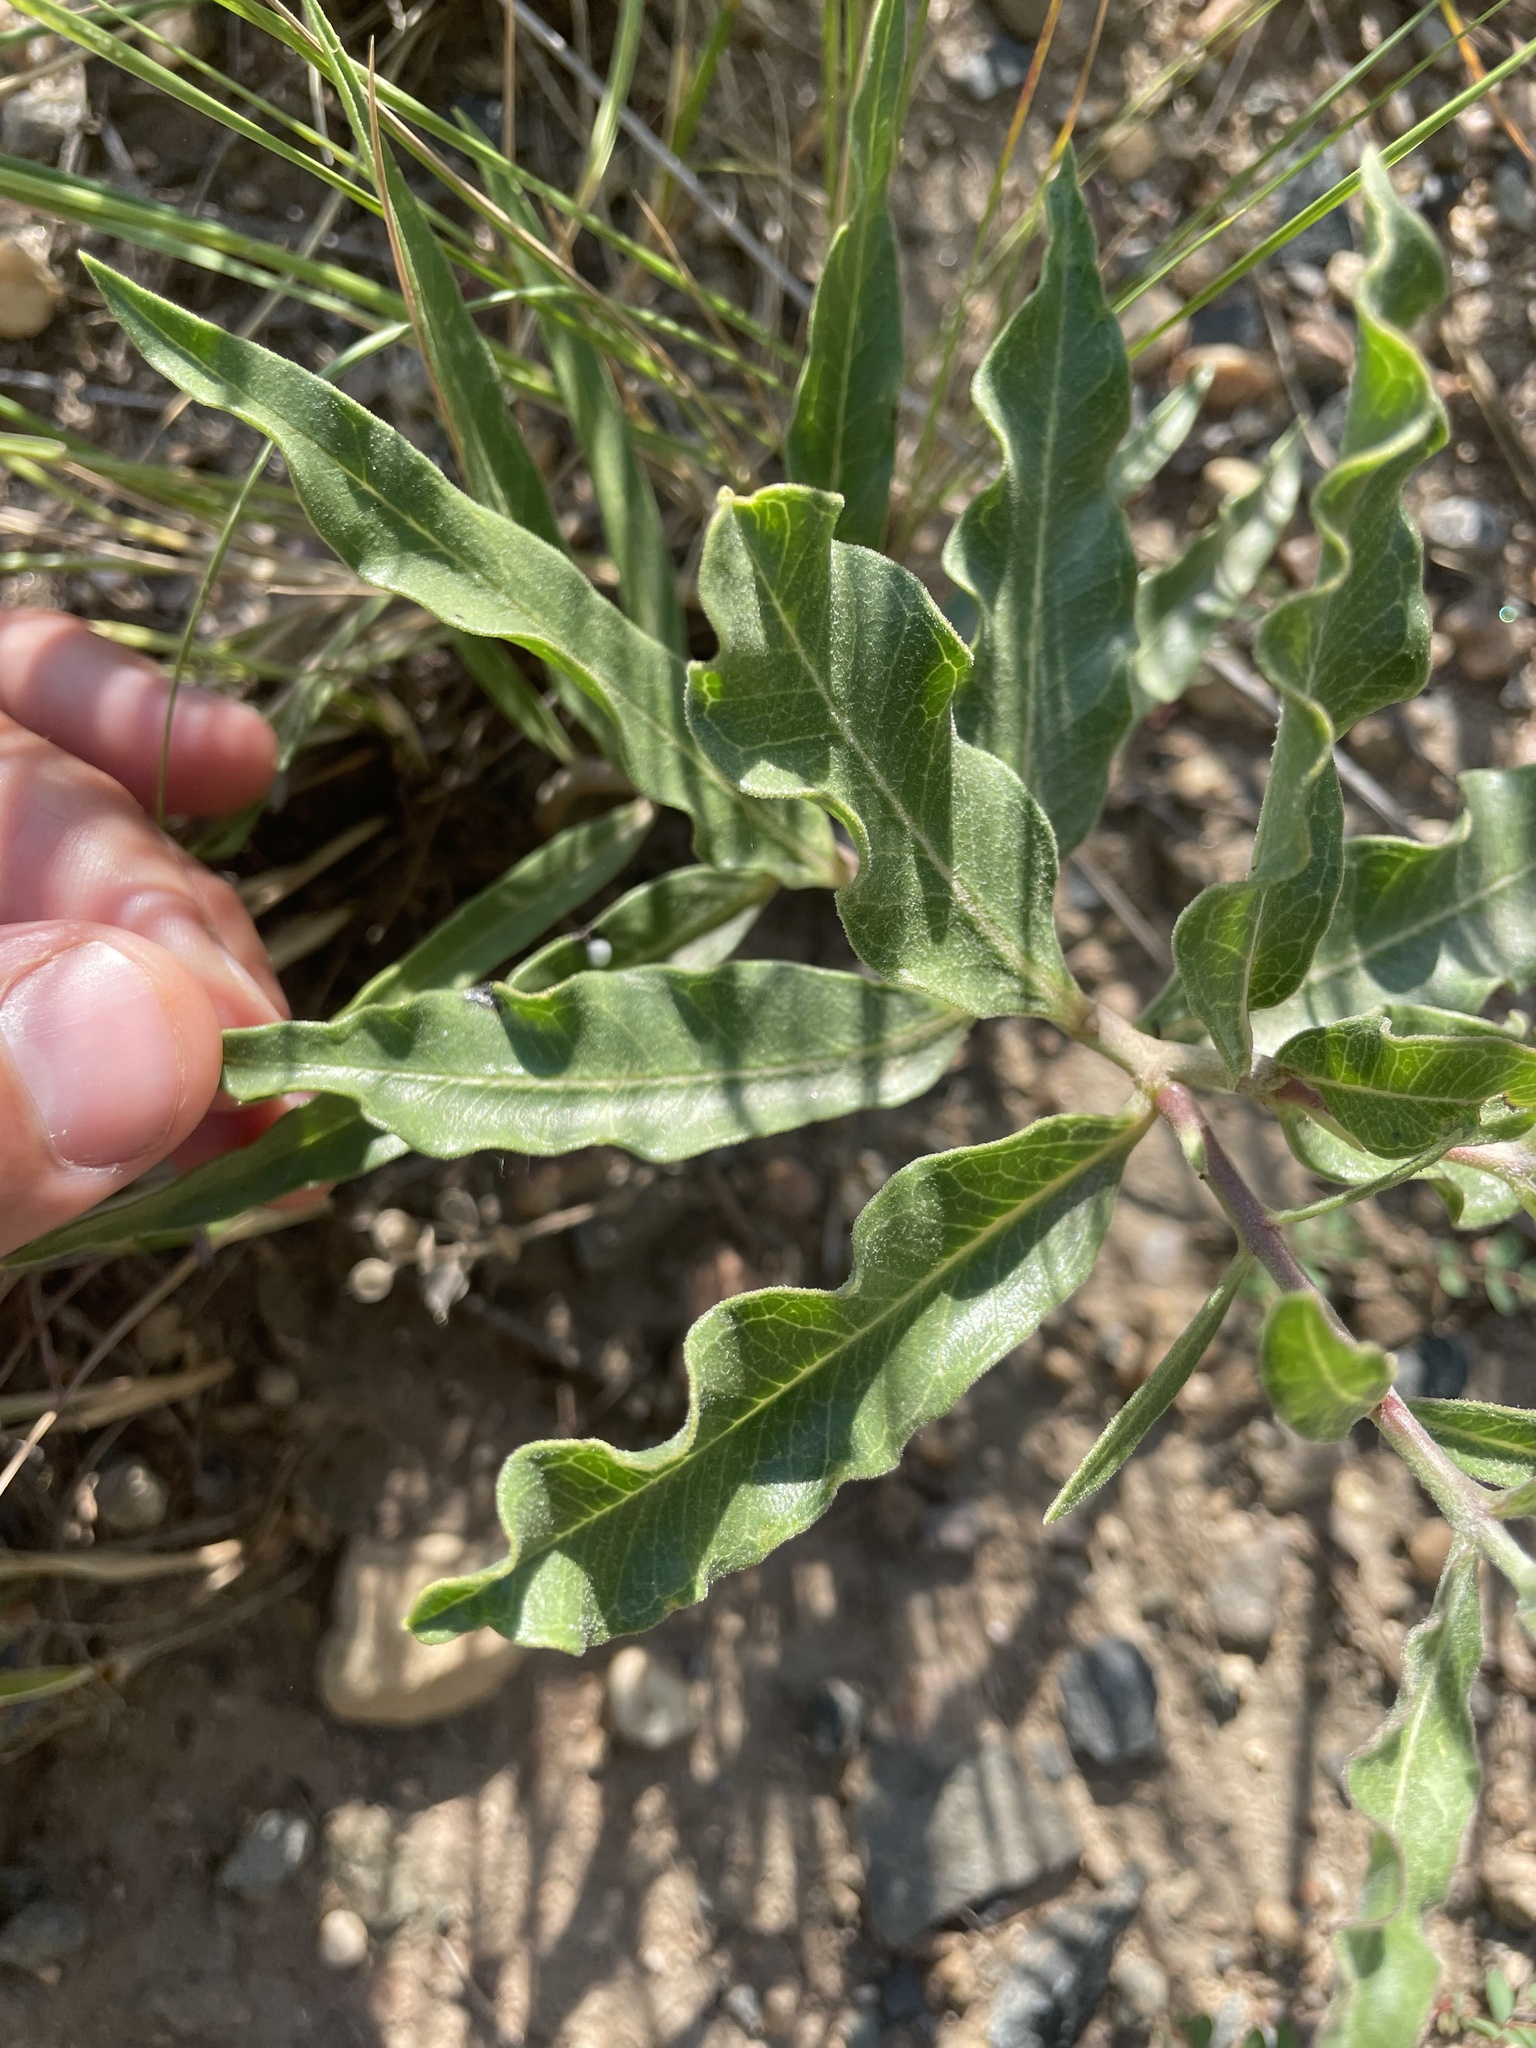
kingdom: Plantae
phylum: Tracheophyta
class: Magnoliopsida
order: Gentianales
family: Apocynaceae
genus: Asclepias
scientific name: Asclepias viridiflora
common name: Green comet milkweed
